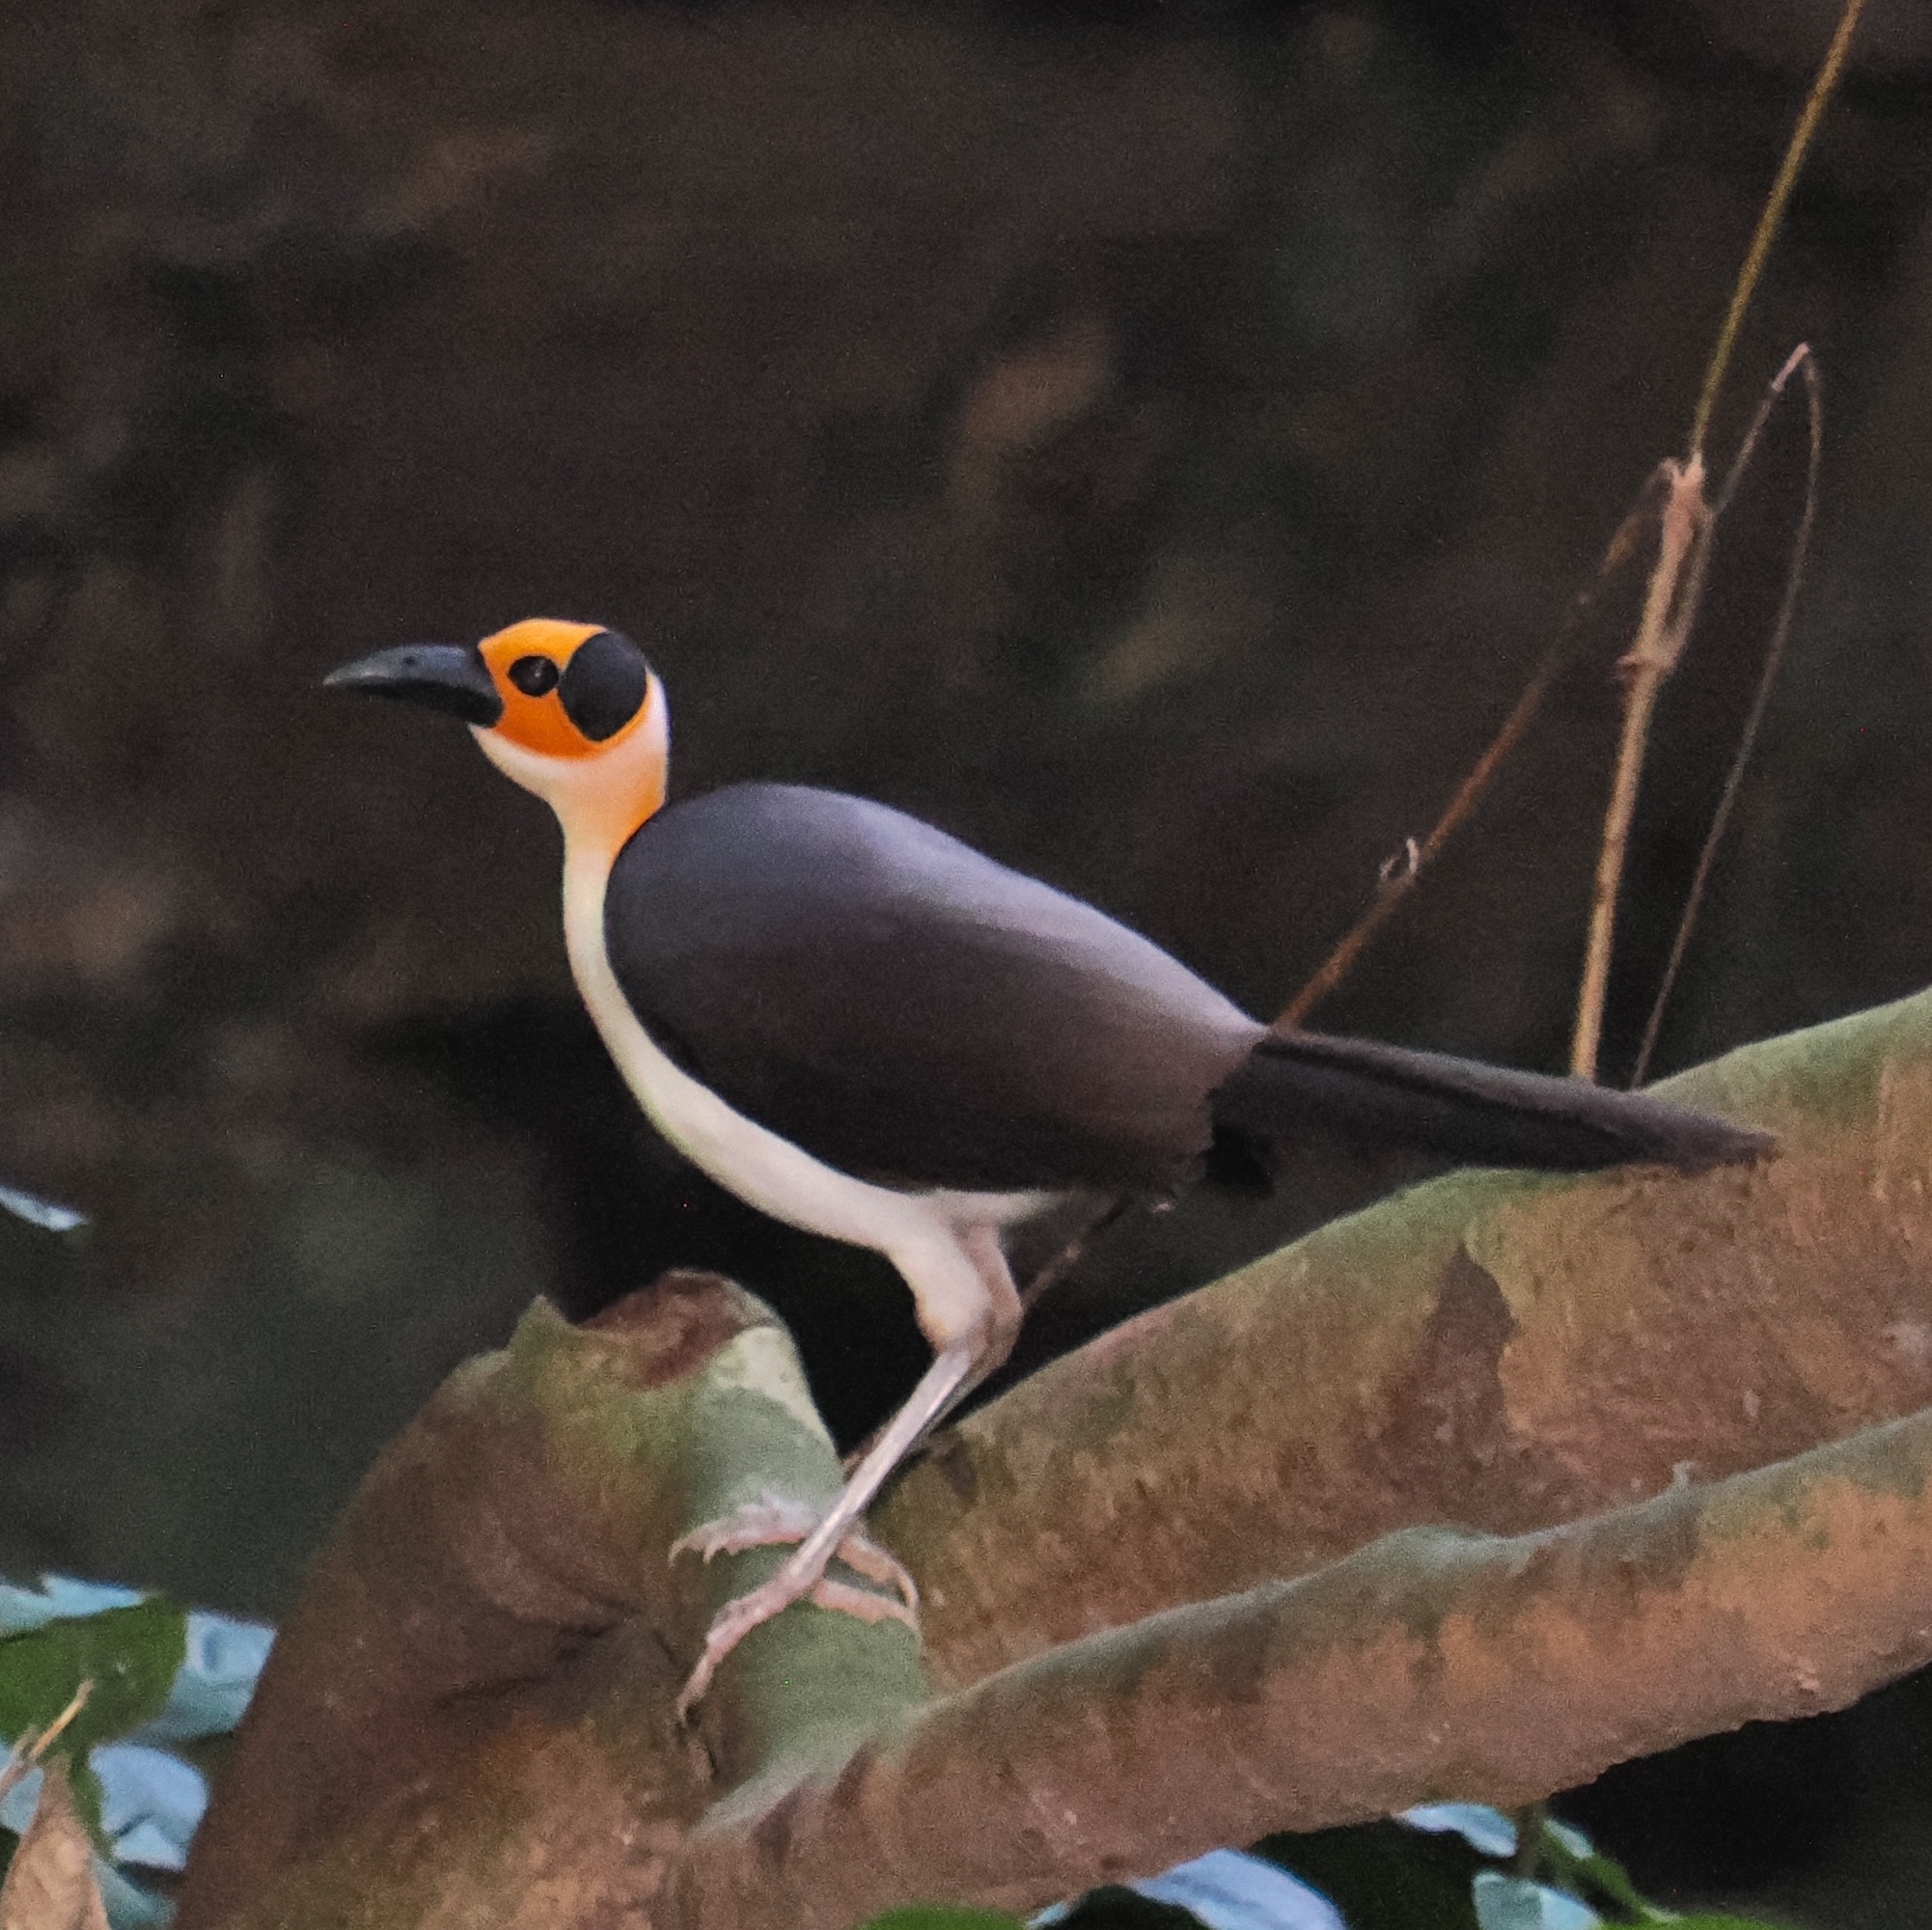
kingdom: Animalia
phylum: Chordata
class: Aves
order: Passeriformes
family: Picathartidae
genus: Picathartes
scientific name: Picathartes gymnocephalus
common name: White-necked rockfowl
